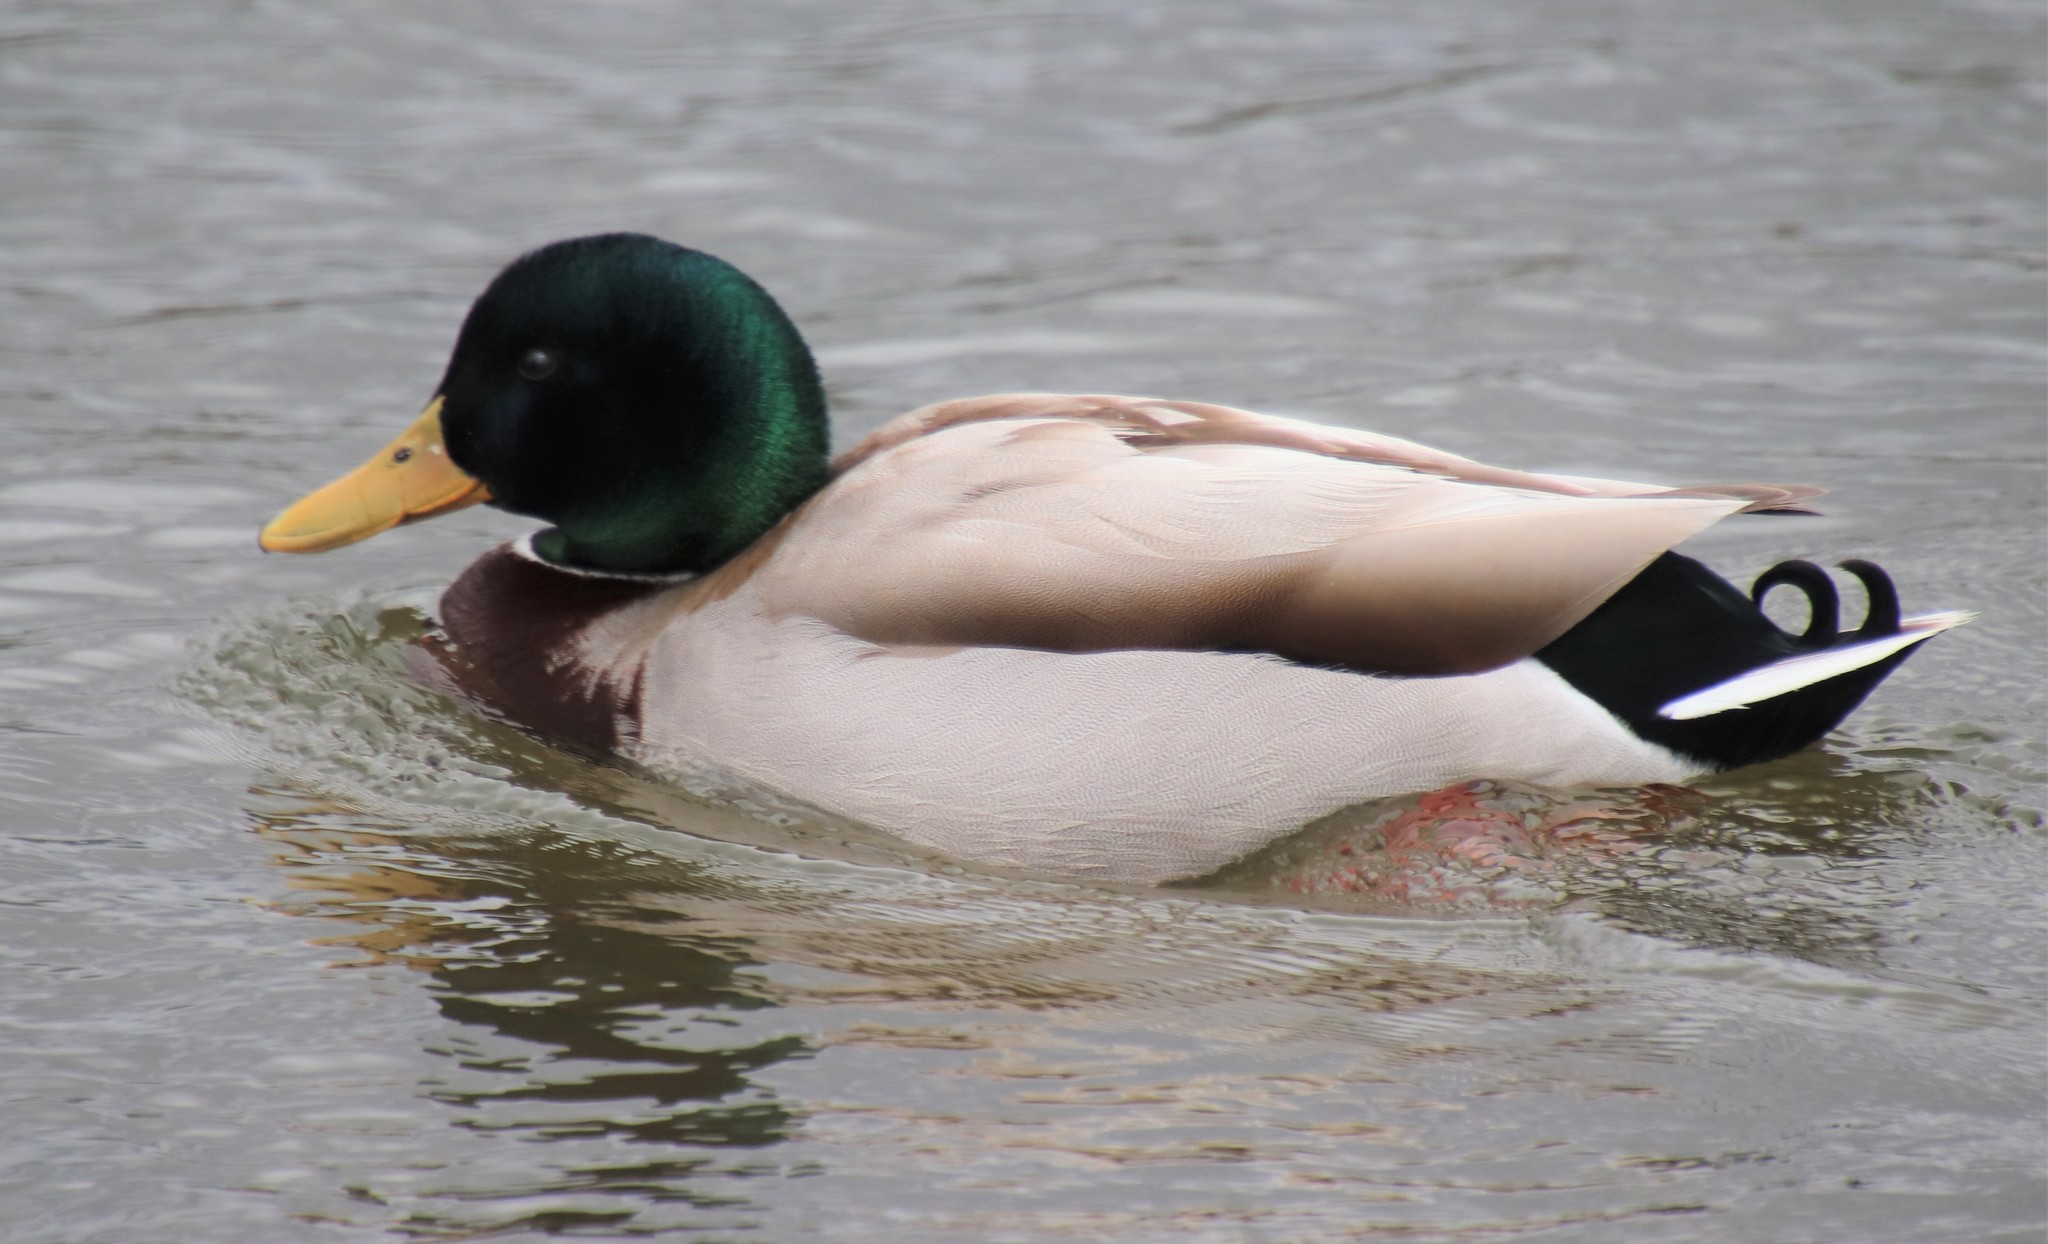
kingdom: Animalia
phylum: Chordata
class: Aves
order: Anseriformes
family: Anatidae
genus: Anas
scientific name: Anas platyrhynchos
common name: Mallard
